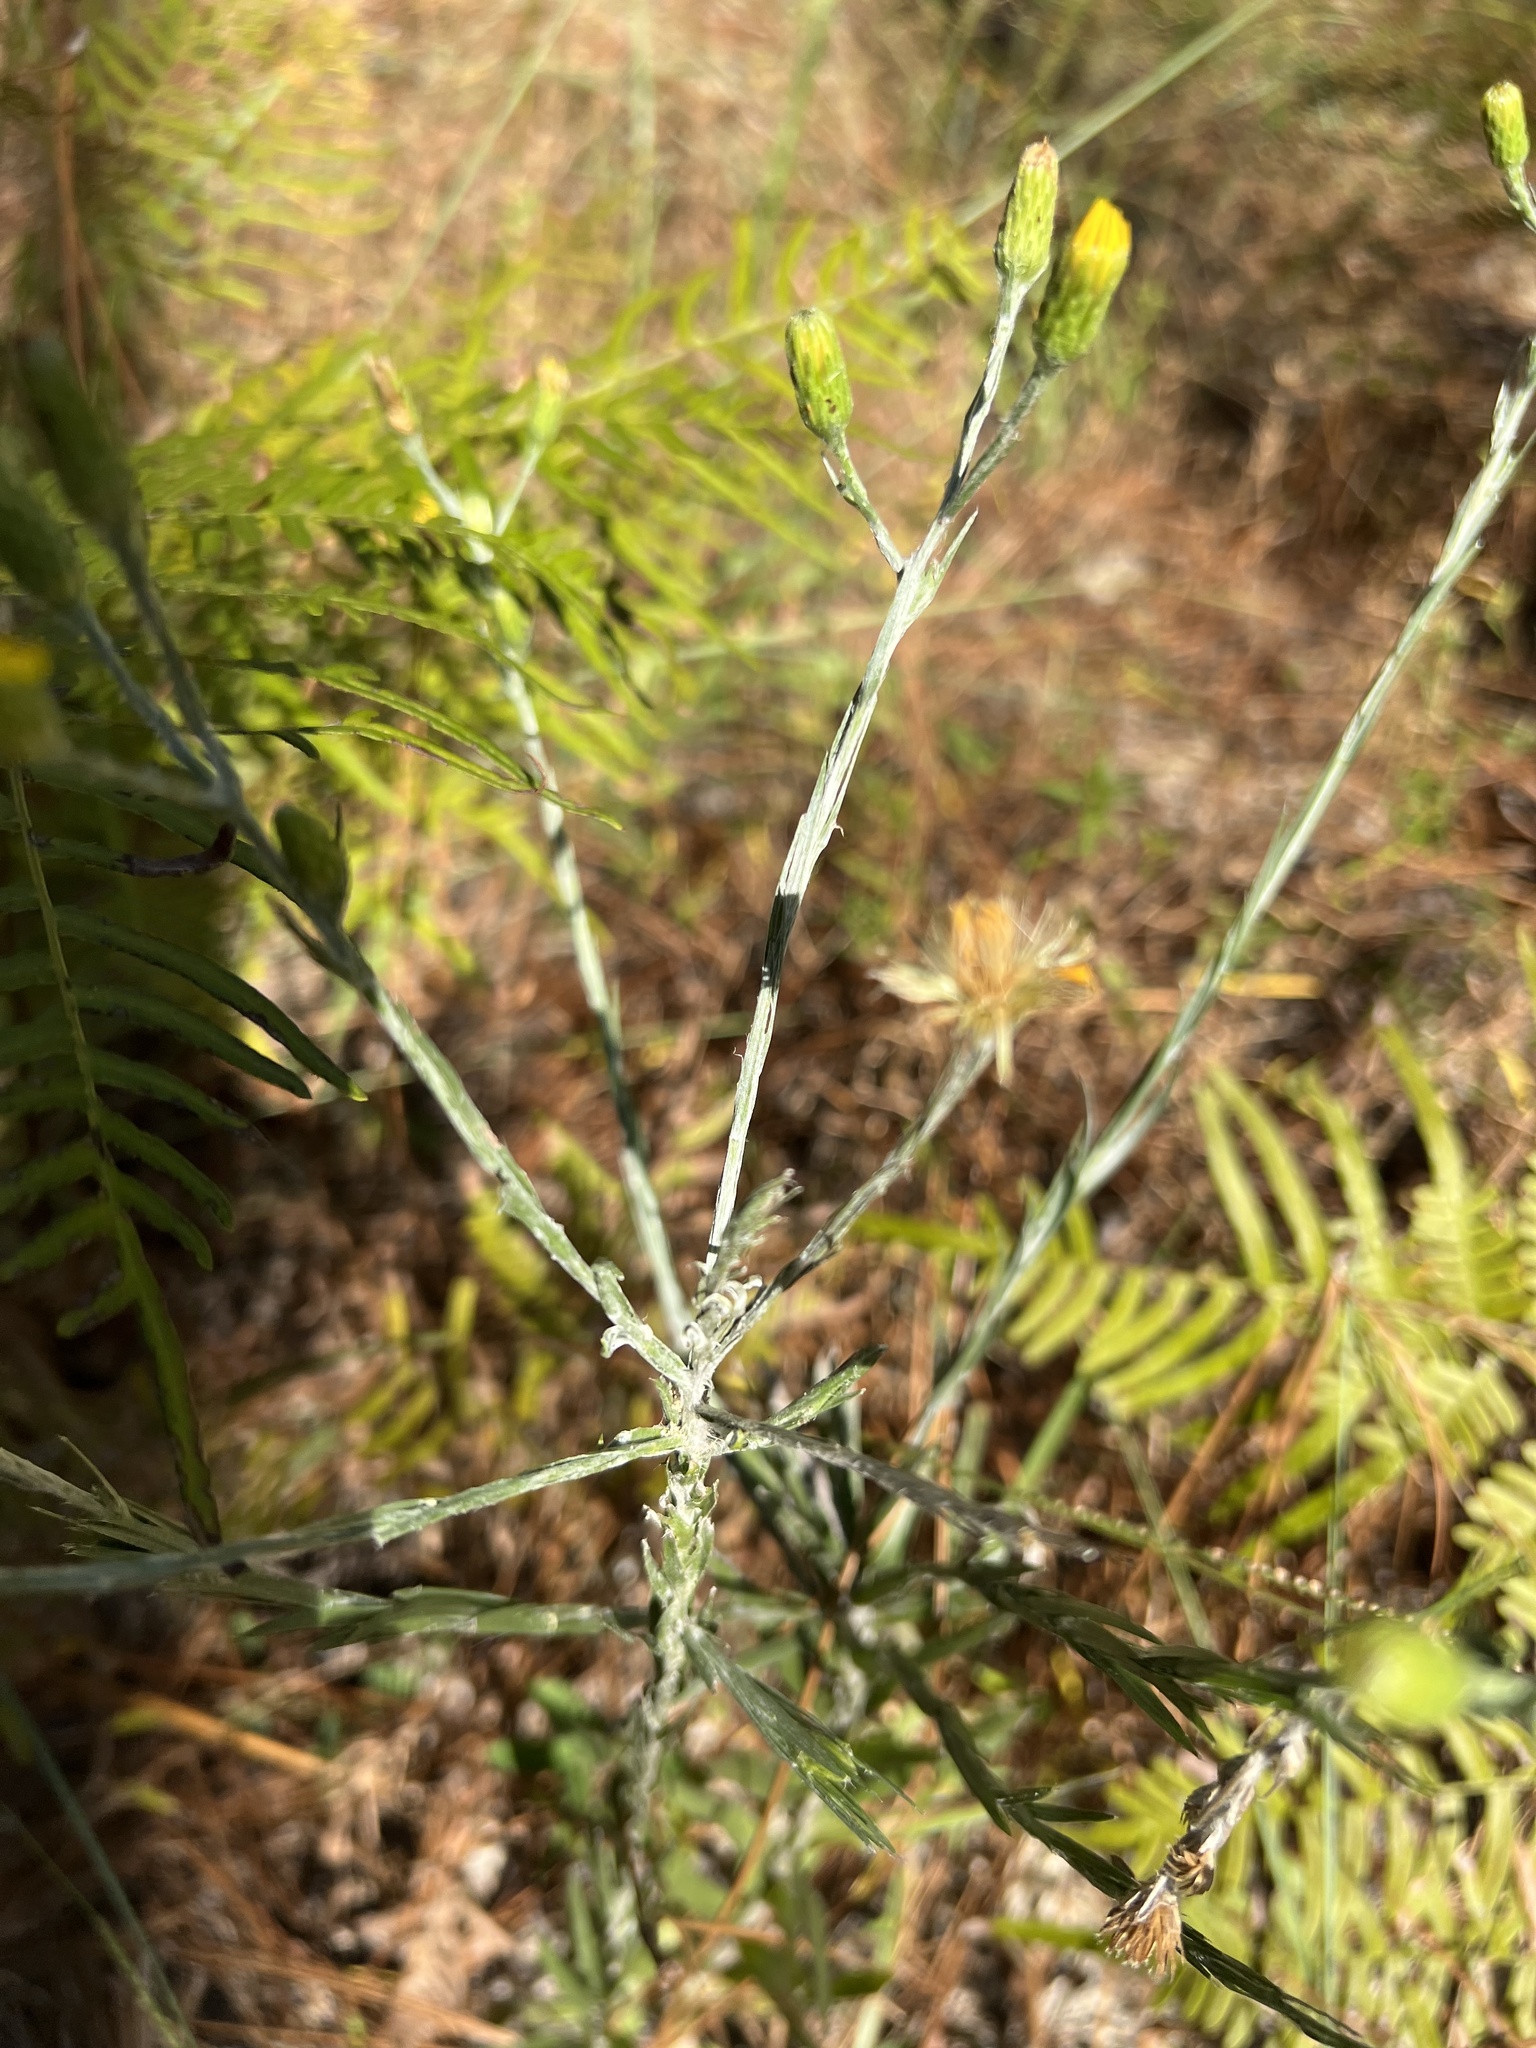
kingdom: Plantae
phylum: Tracheophyta
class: Magnoliopsida
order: Asterales
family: Asteraceae
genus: Pityopsis
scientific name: Pityopsis graminifolia
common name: Grass-leaf golden-aster
